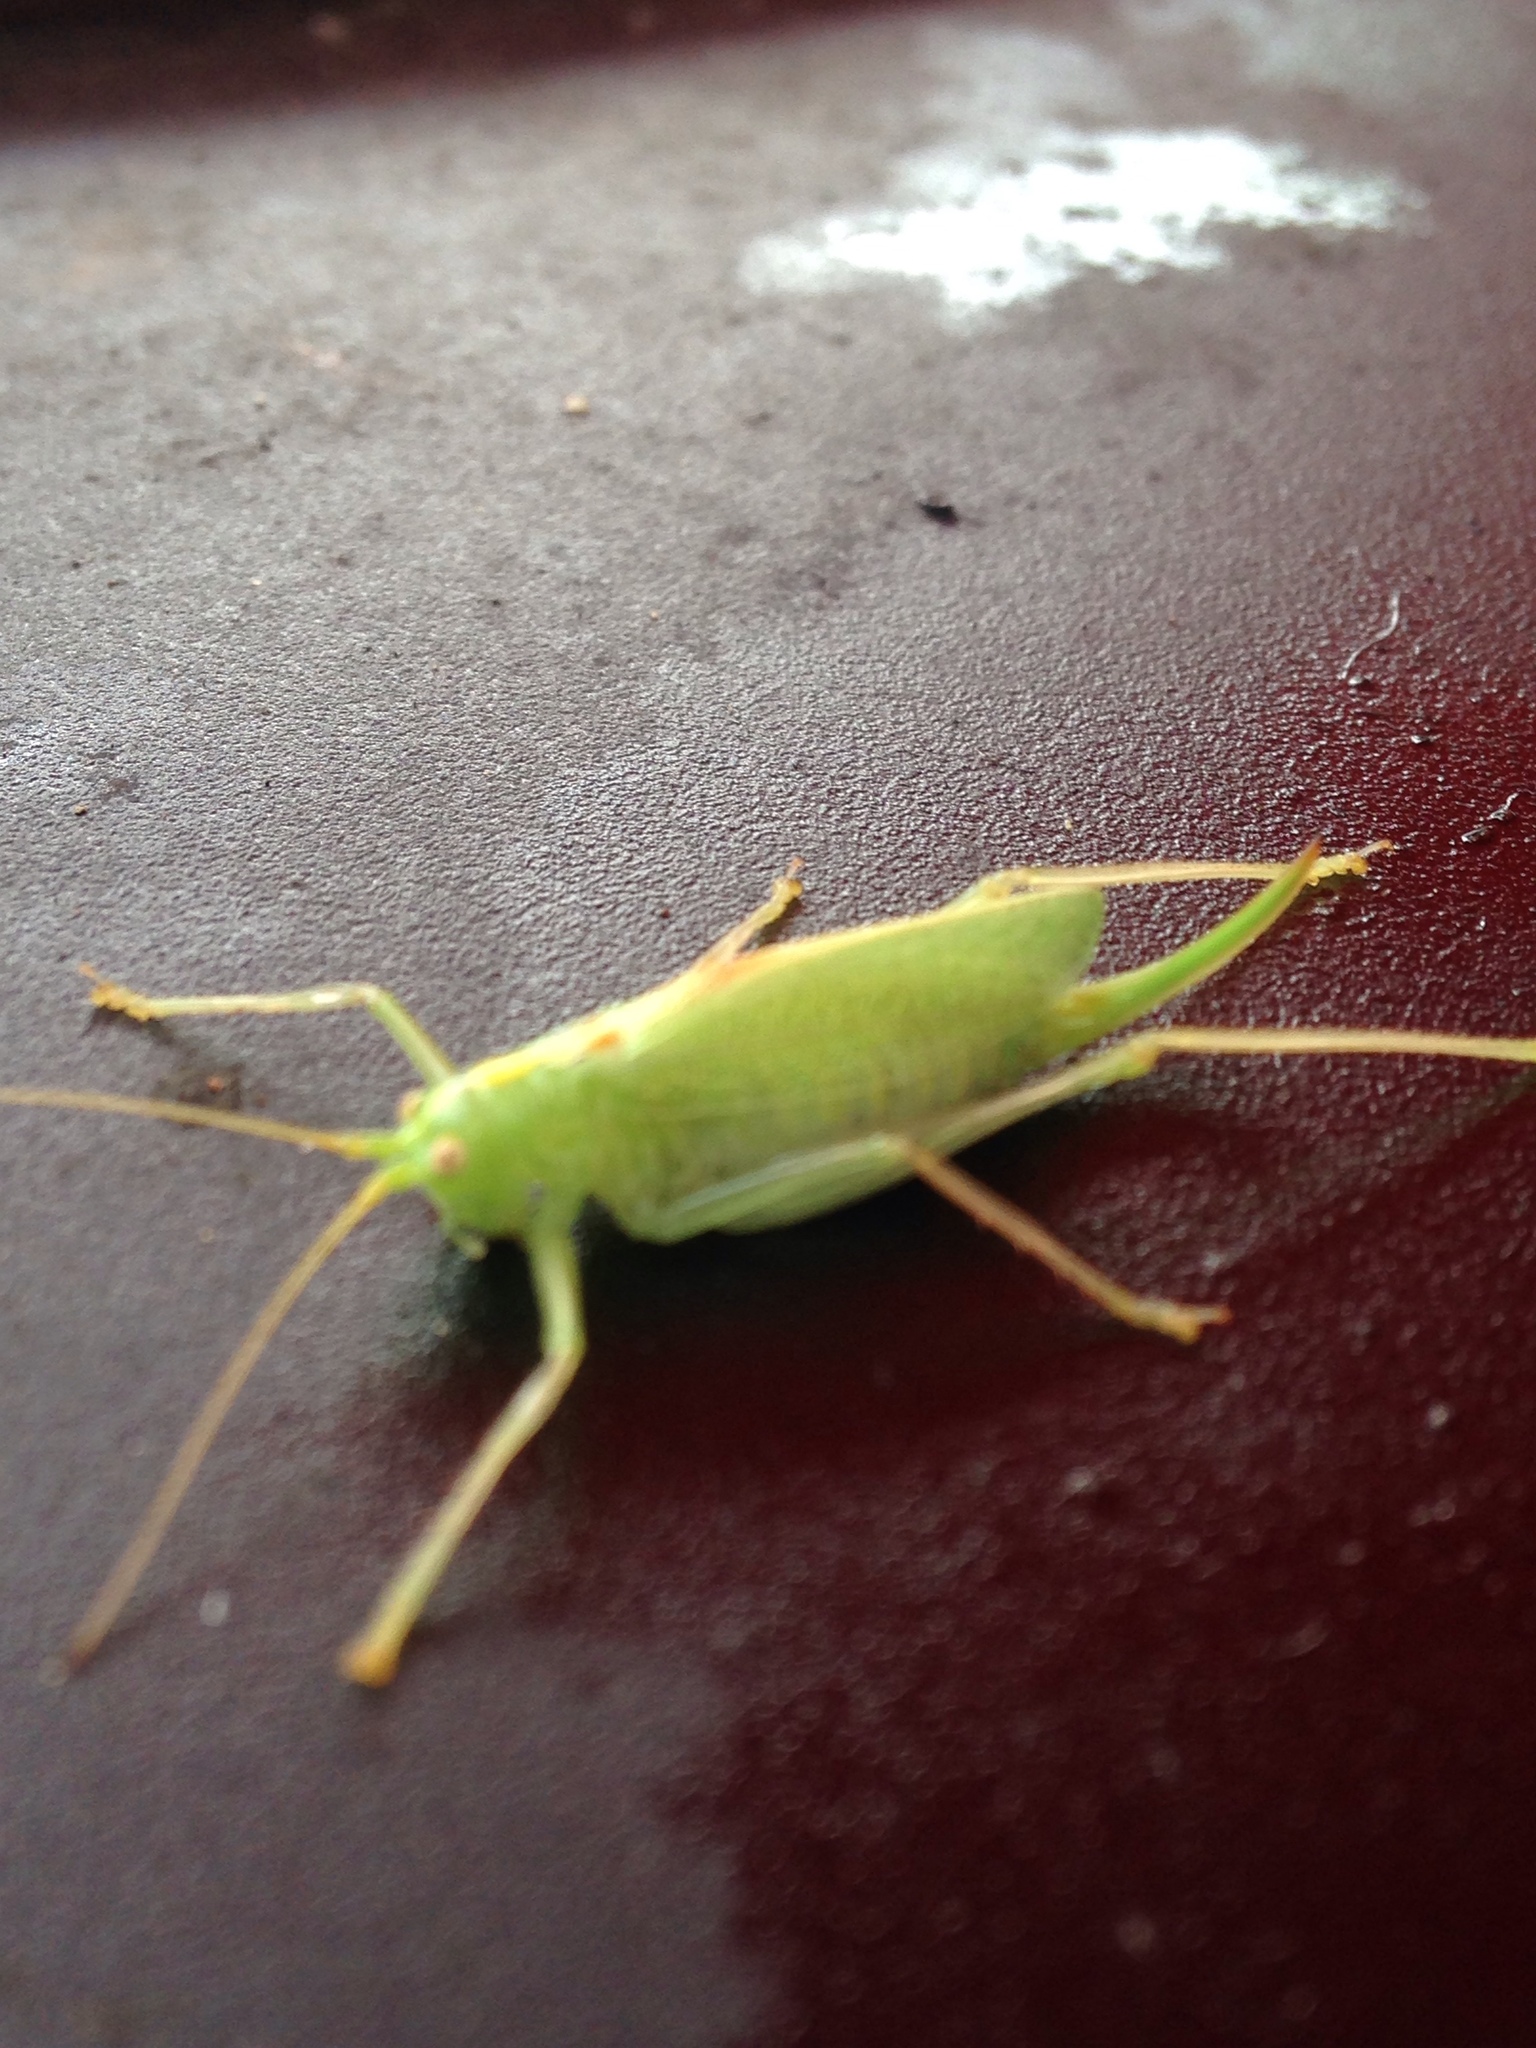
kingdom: Animalia
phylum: Arthropoda
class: Insecta
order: Orthoptera
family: Tettigoniidae
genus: Meconema
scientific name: Meconema thalassinum
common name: Oak bush-cricket
